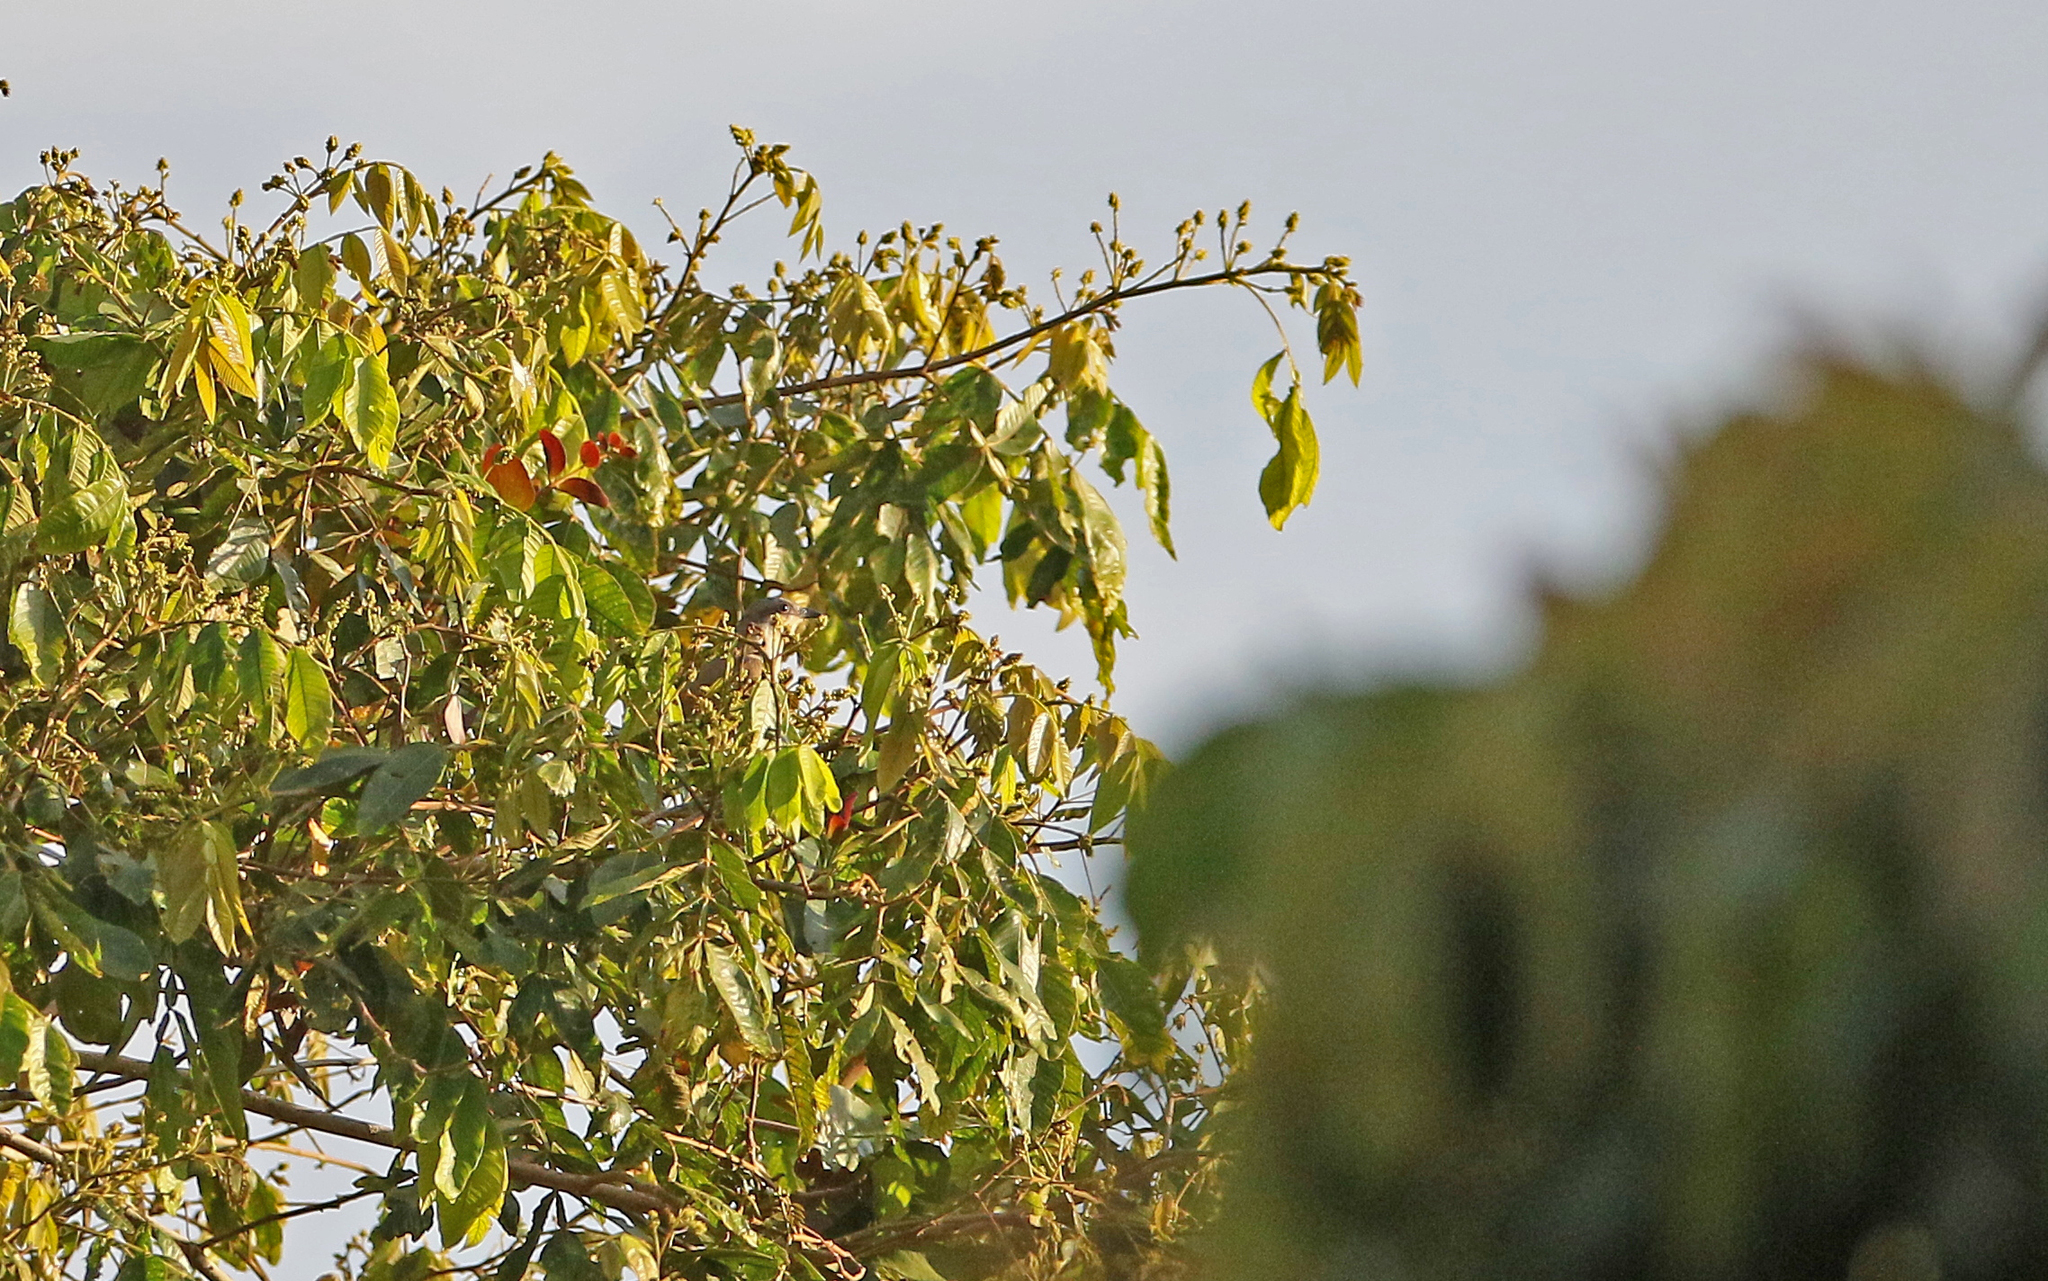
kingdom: Animalia
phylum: Chordata
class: Aves
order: Cuculiformes
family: Cuculidae
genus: Coccyzus
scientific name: Coccyzus melacoryphus
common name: Dark-billed cuckoo
